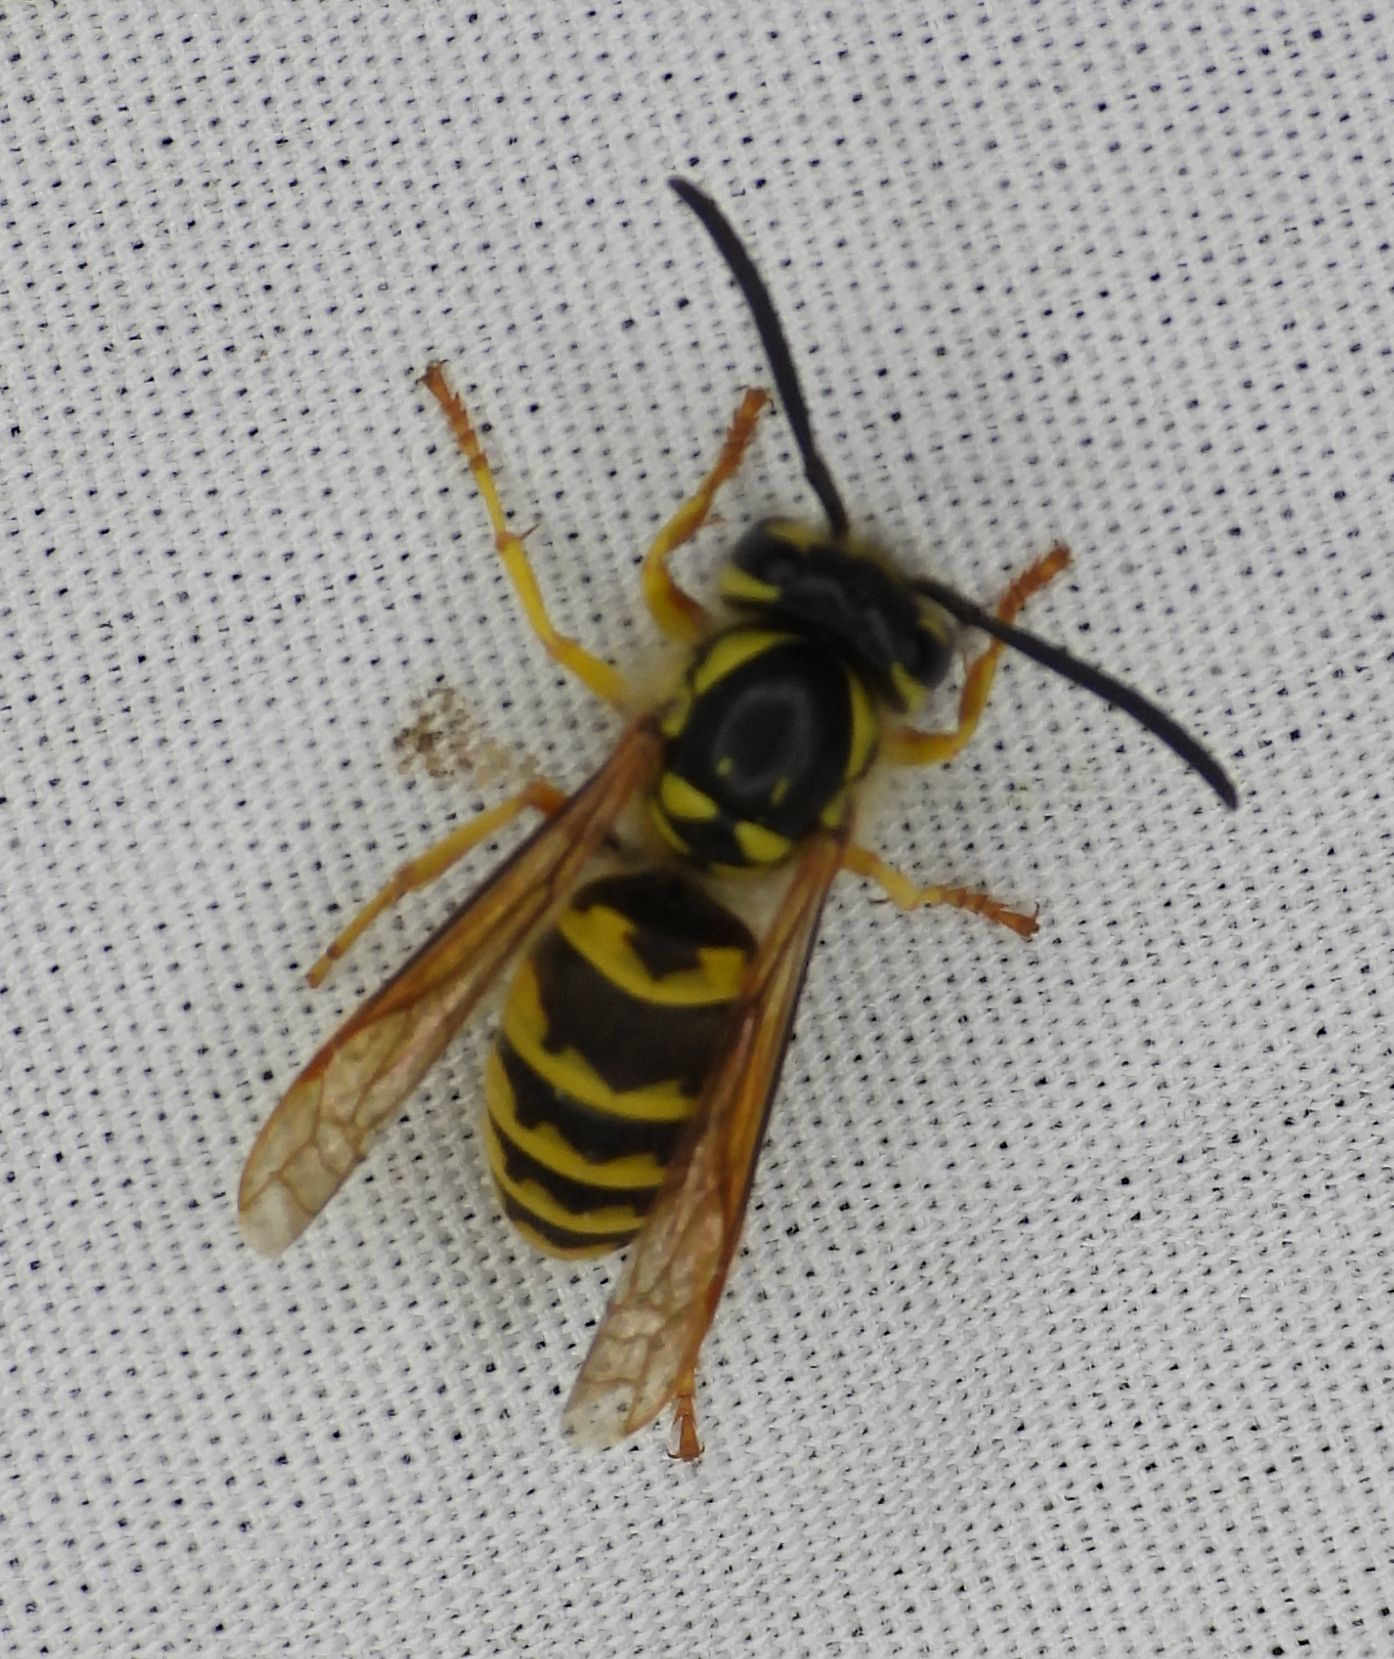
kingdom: Animalia
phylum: Arthropoda
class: Insecta
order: Hymenoptera
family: Vespidae
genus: Vespula
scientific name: Vespula flavopilosa
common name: Downy yellowjacket
